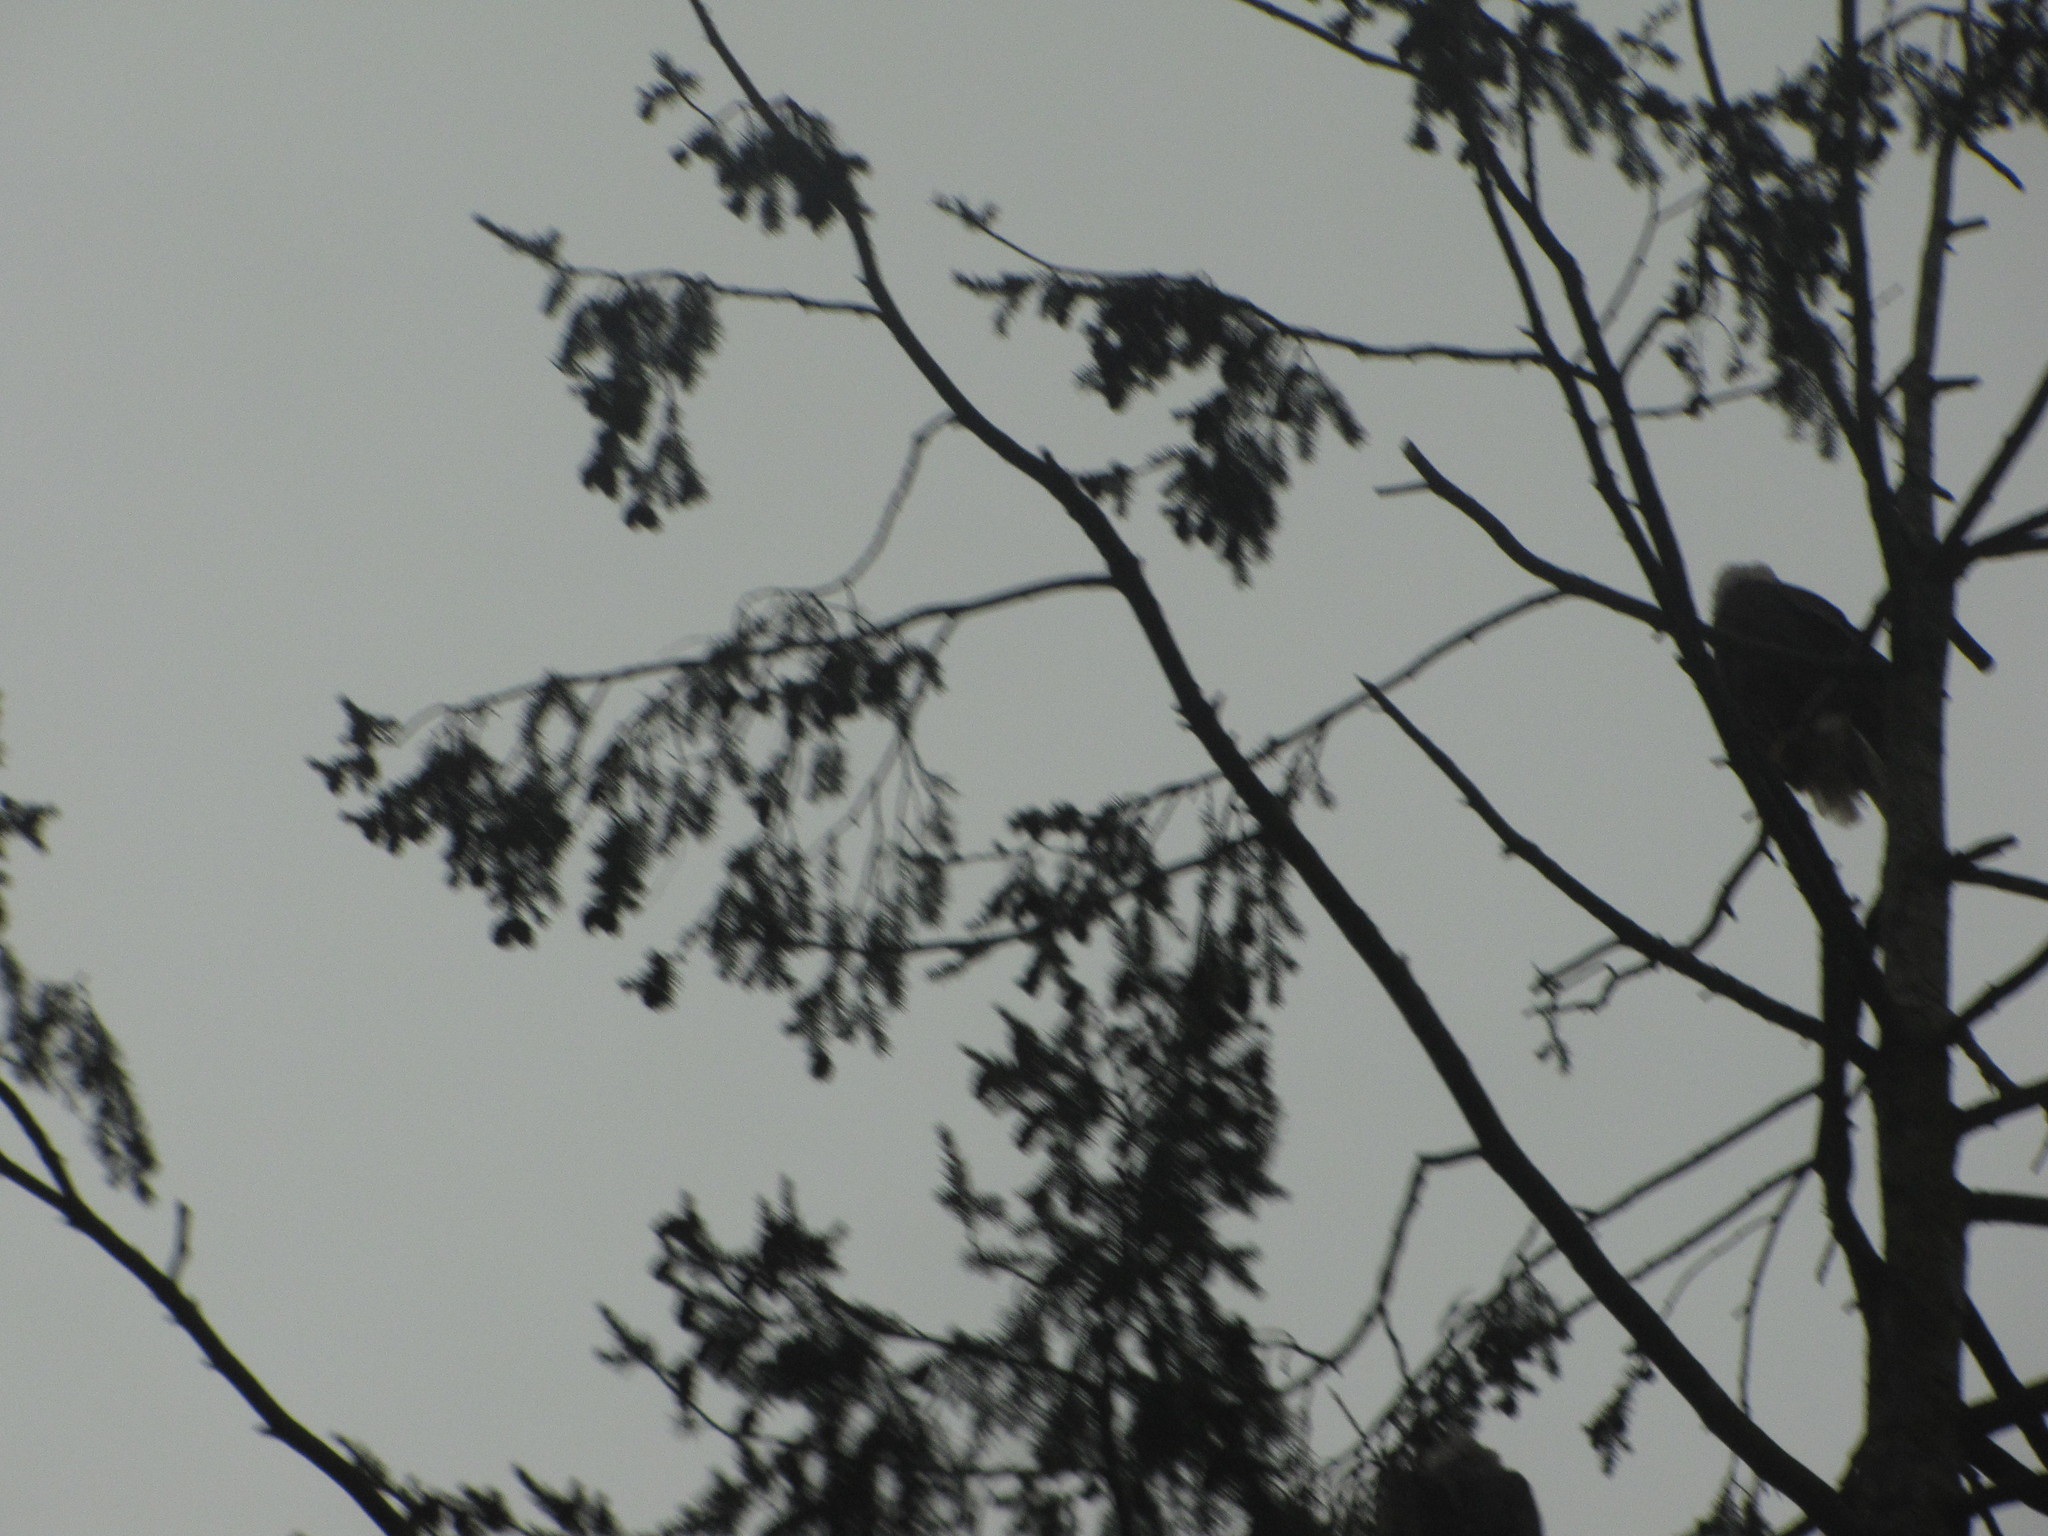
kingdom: Animalia
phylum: Chordata
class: Aves
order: Accipitriformes
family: Accipitridae
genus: Haliaeetus
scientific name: Haliaeetus leucocephalus
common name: Bald eagle
